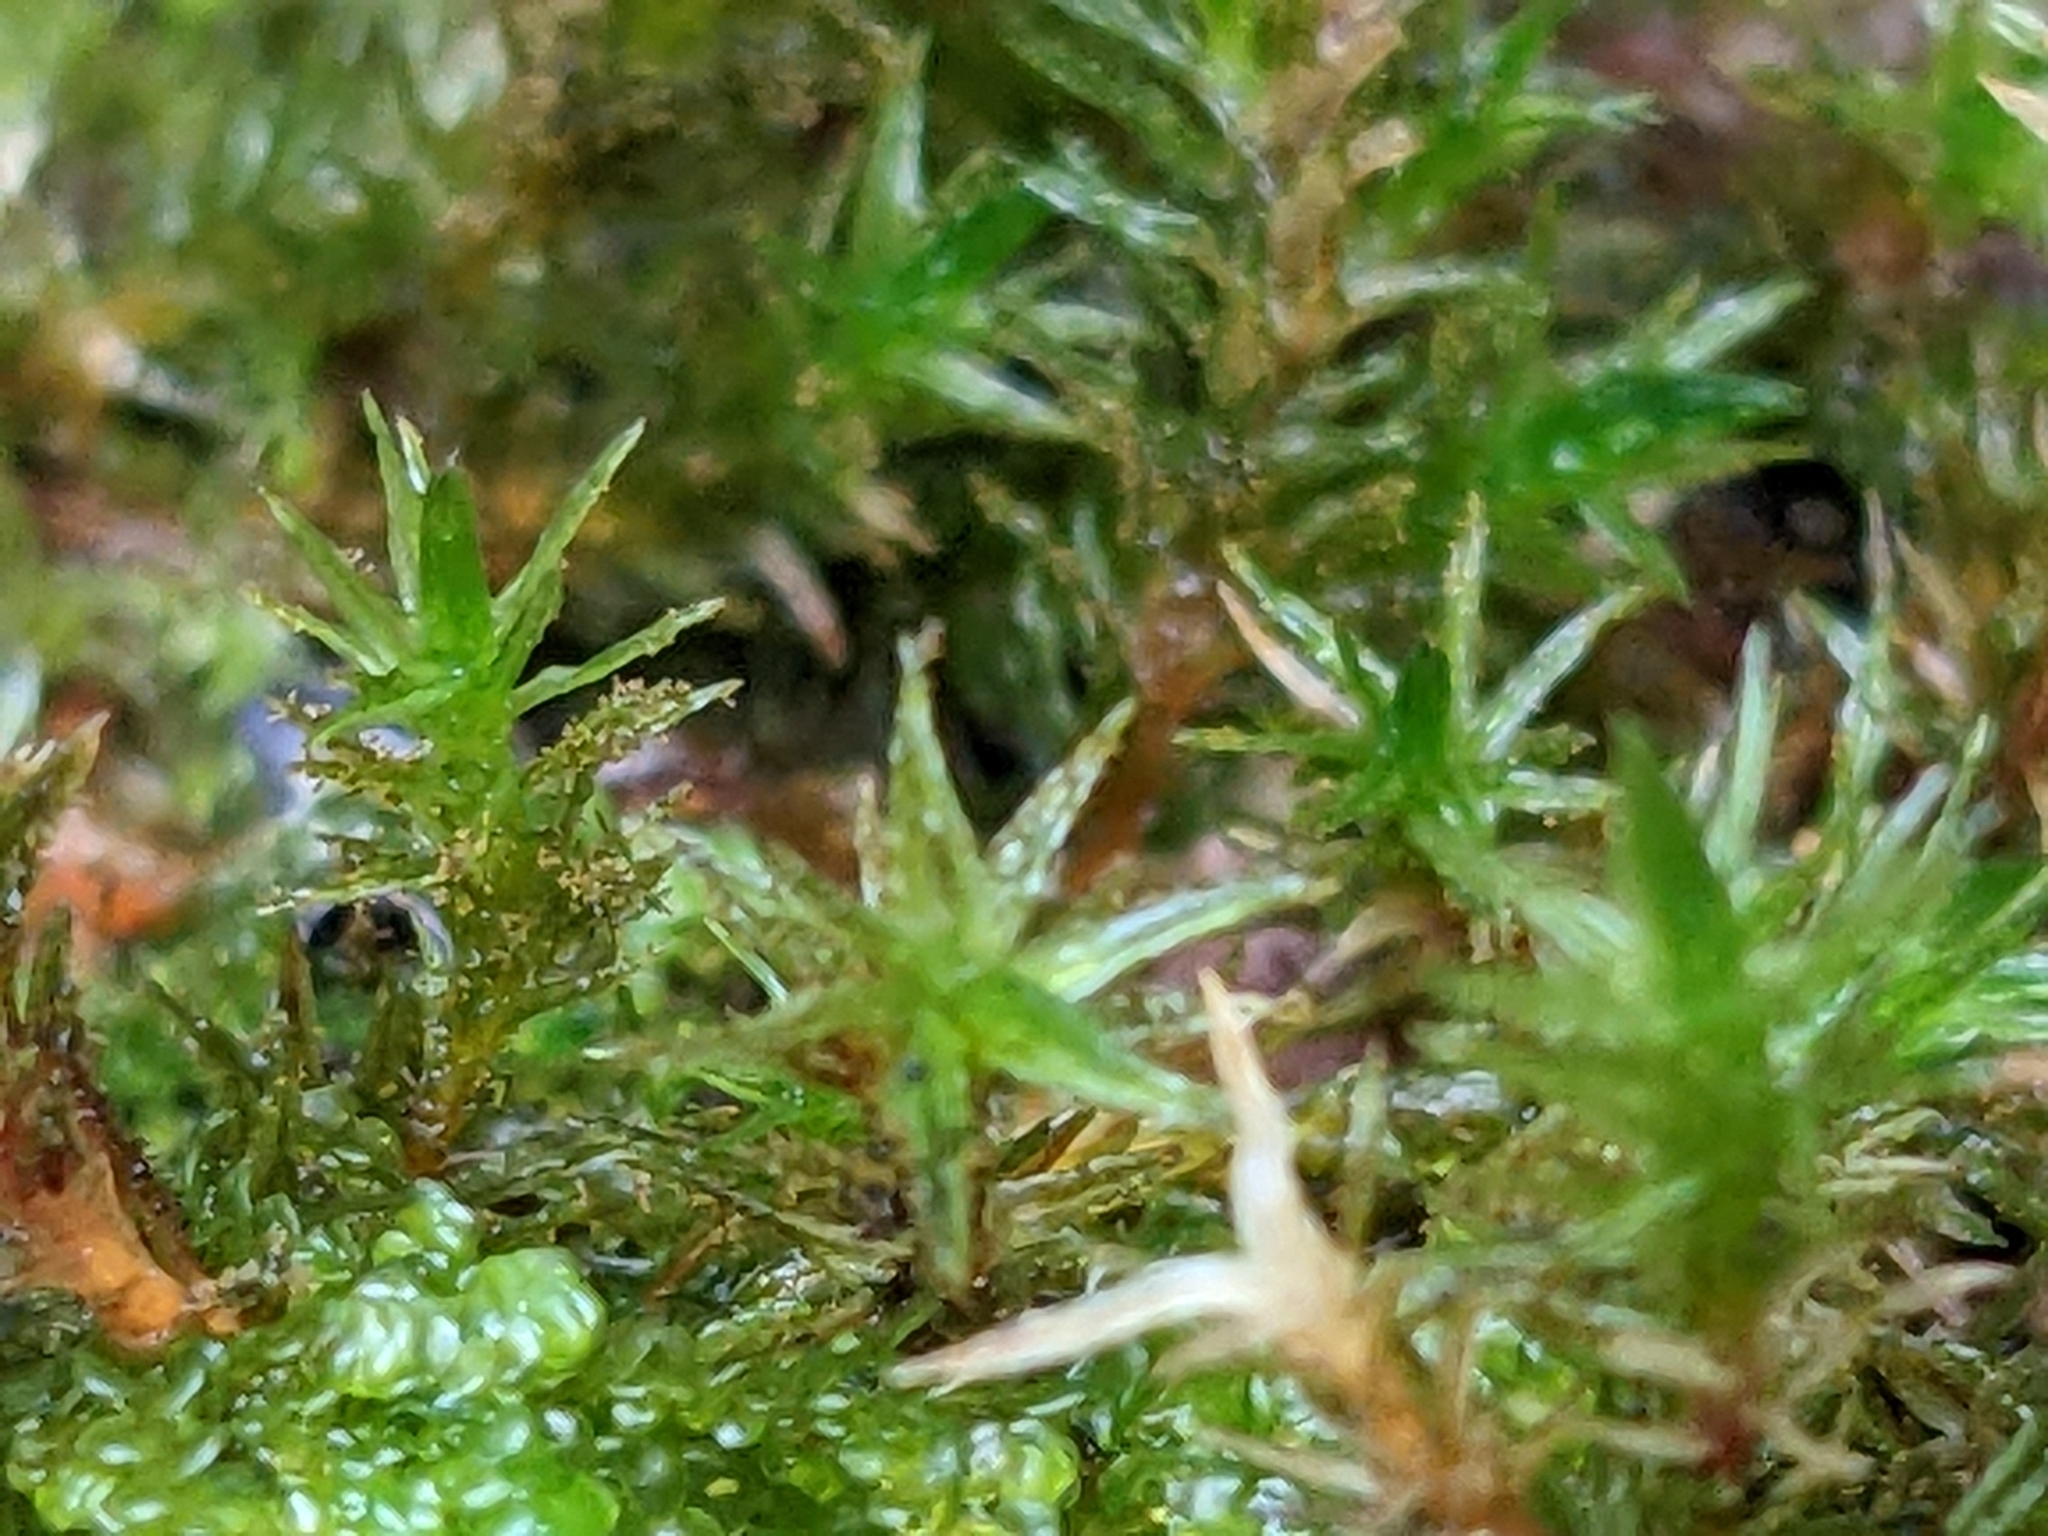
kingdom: Plantae
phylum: Bryophyta
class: Bryopsida
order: Orthotrichales
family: Orthotrichaceae
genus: Pulvigera
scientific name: Pulvigera lyellii
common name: Lyell's bristle-moss
